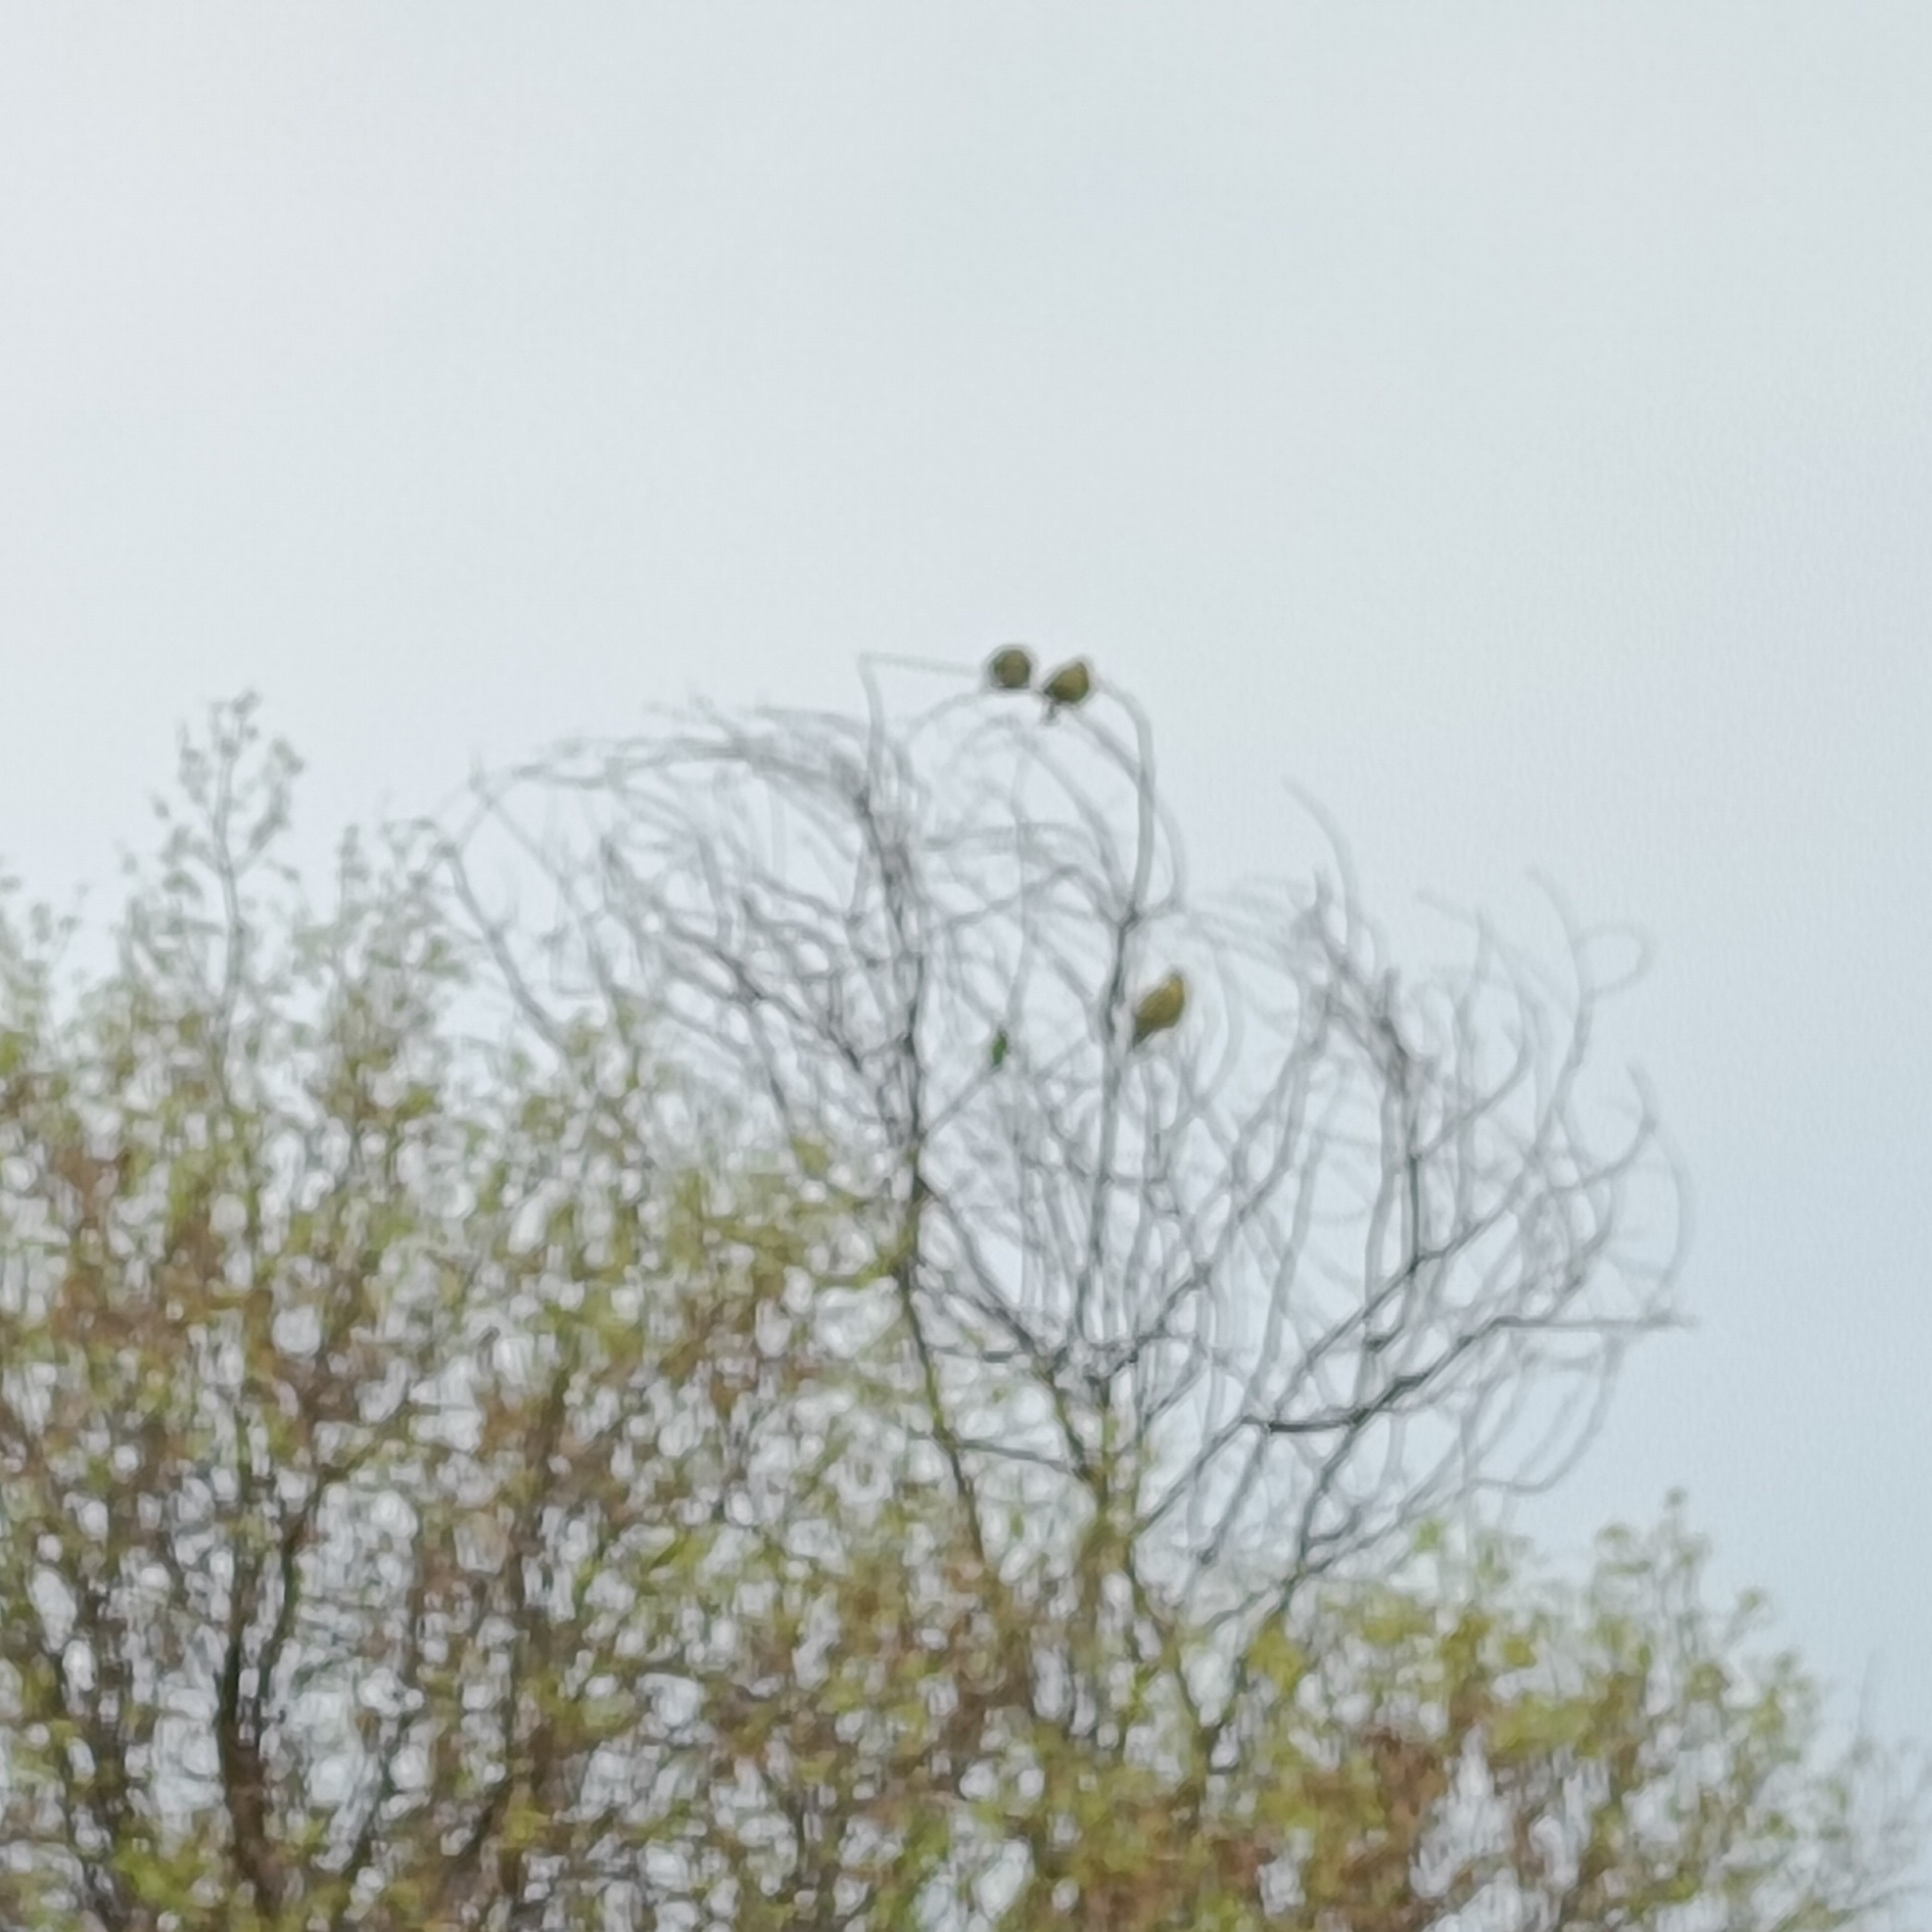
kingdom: Animalia
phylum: Chordata
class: Aves
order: Columbiformes
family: Columbidae
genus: Treron
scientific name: Treron phoenicopterus
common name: Yellow-footed green pigeon
